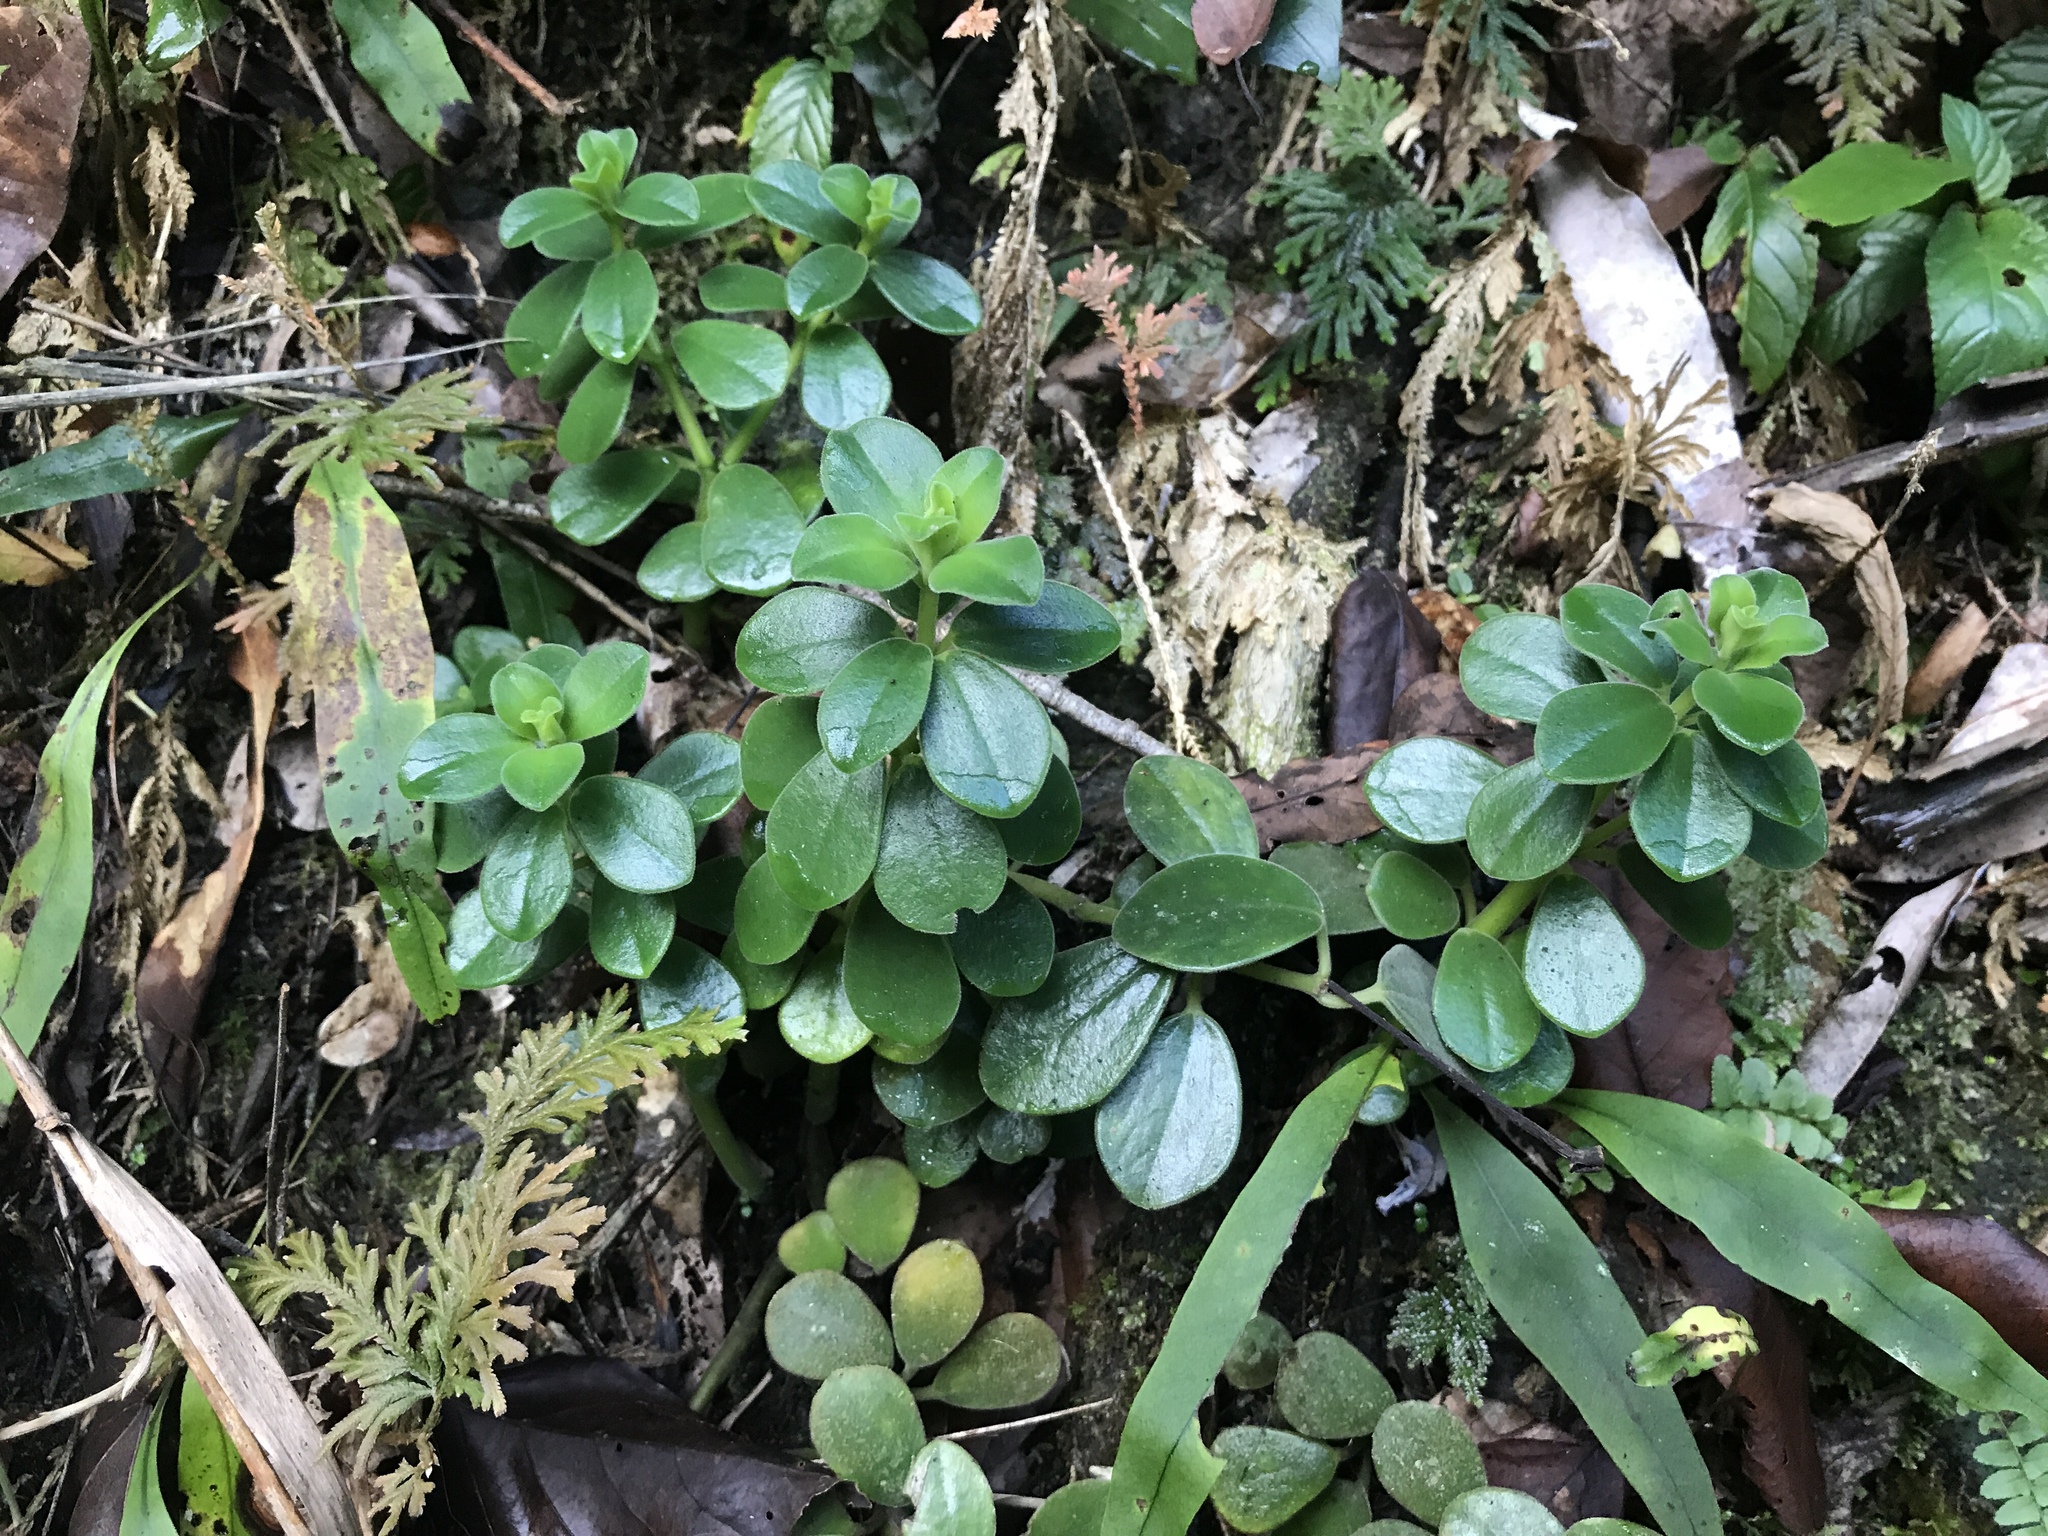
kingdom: Plantae
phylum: Tracheophyta
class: Magnoliopsida
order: Piperales
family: Piperaceae
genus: Peperomia
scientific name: Peperomia japonica
